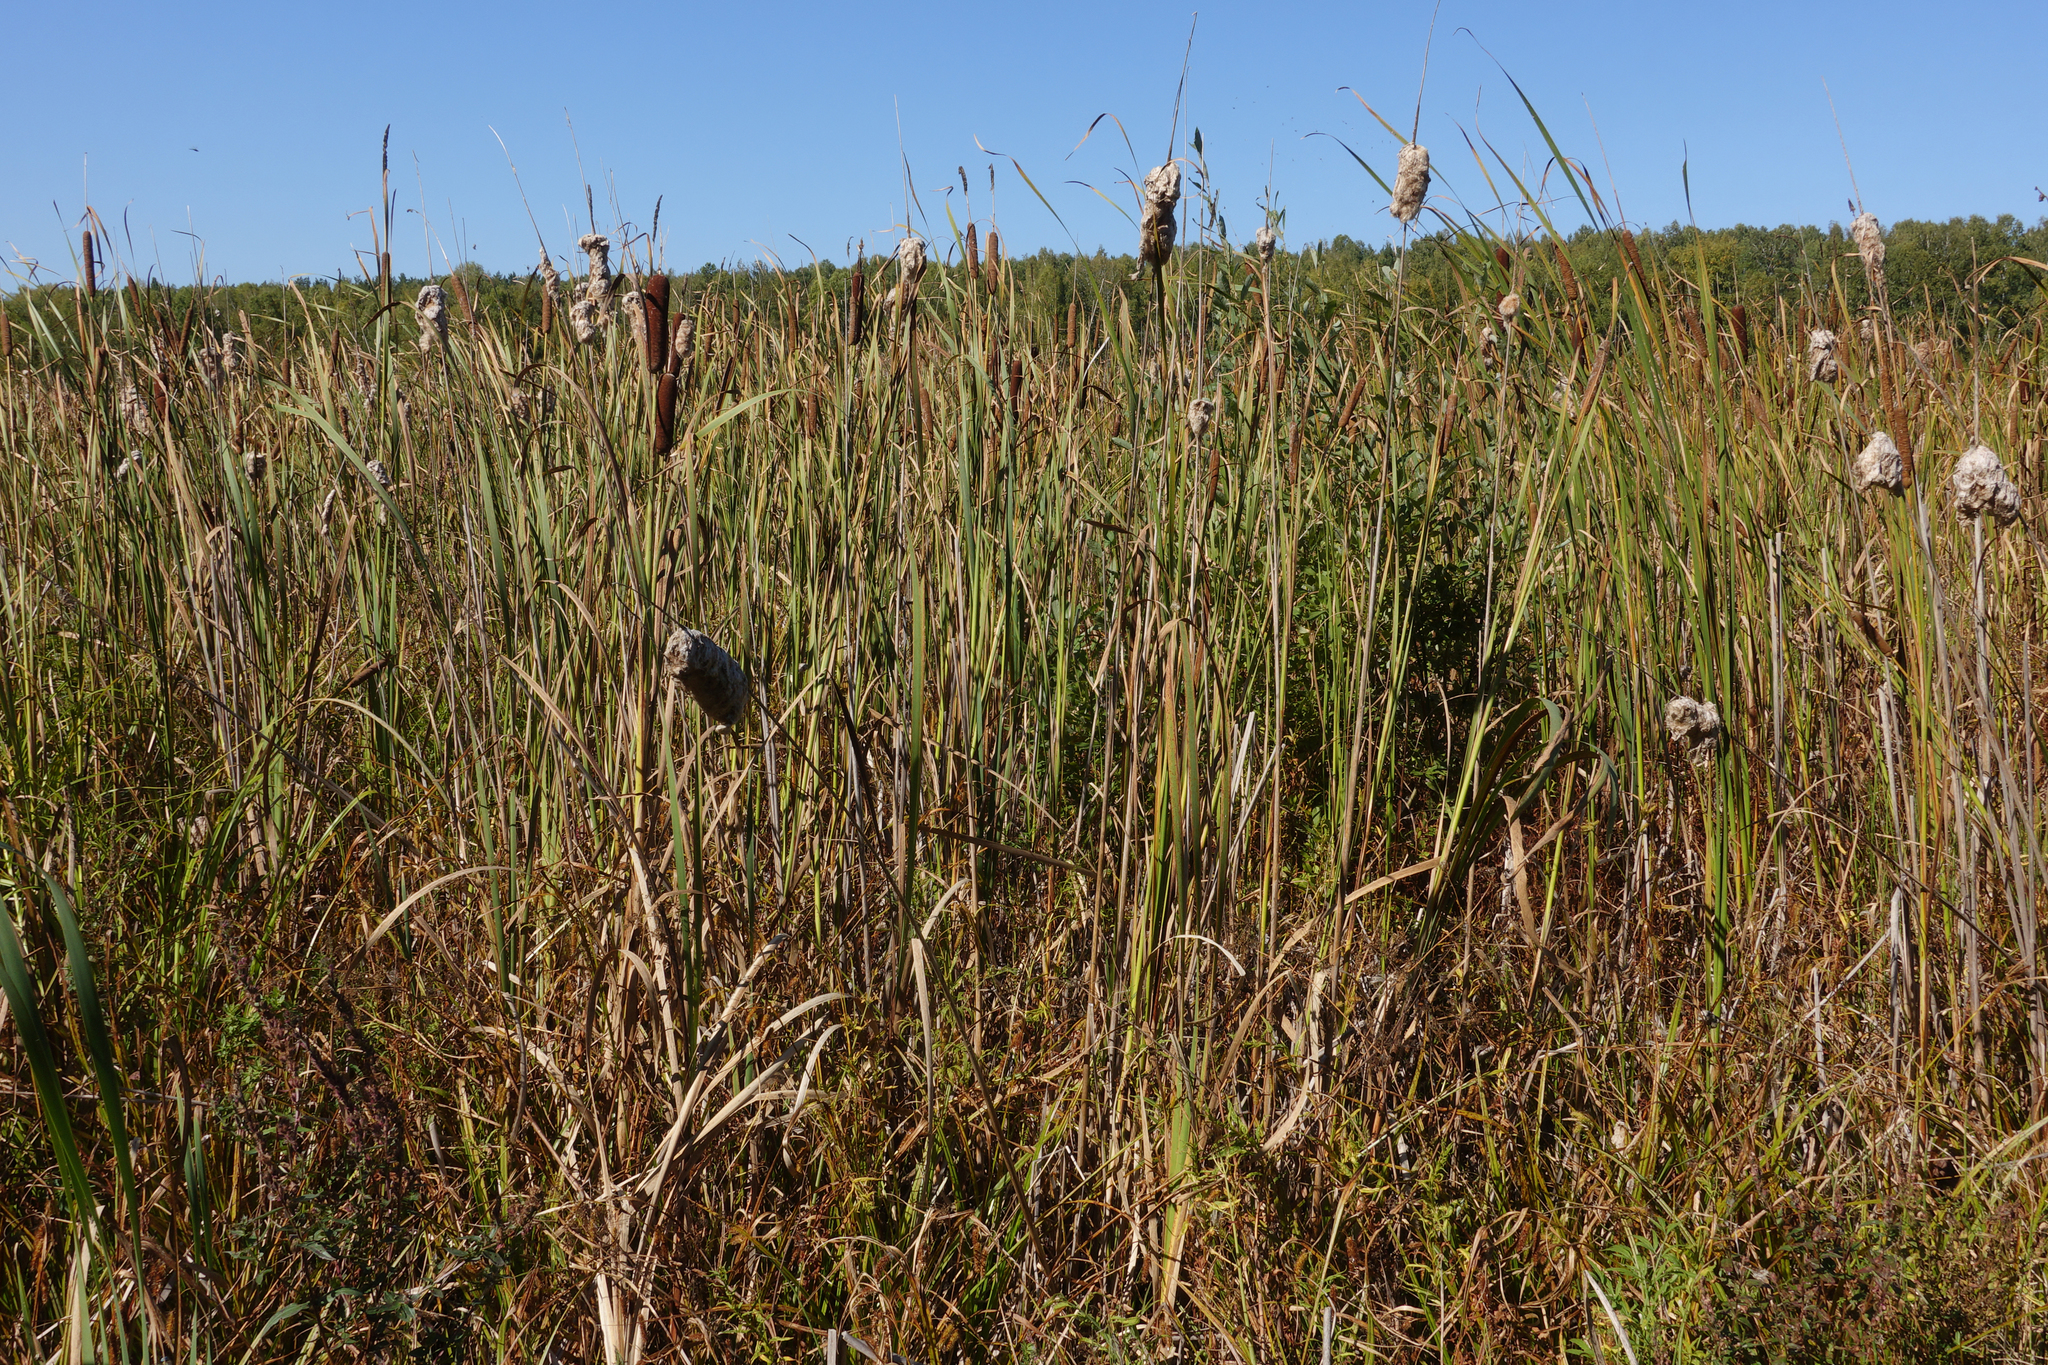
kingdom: Plantae
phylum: Tracheophyta
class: Liliopsida
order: Poales
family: Typhaceae
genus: Typha
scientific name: Typha latifolia
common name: Broadleaf cattail
